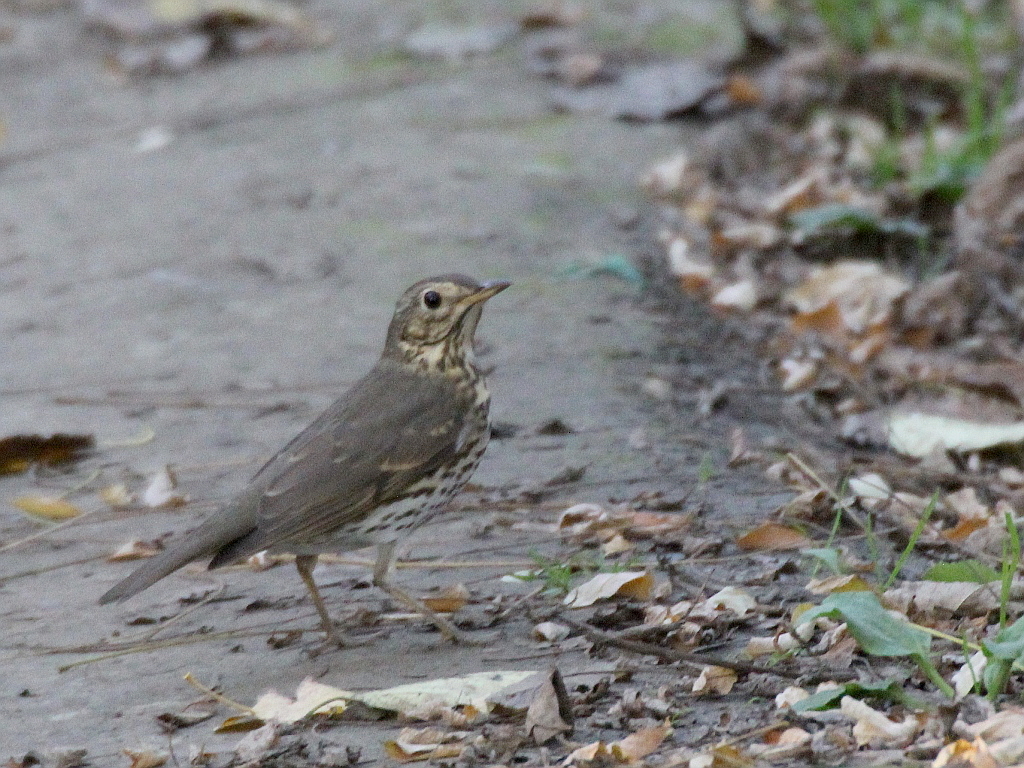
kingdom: Animalia
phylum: Chordata
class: Aves
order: Passeriformes
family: Turdidae
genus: Turdus
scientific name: Turdus philomelos
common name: Song thrush
